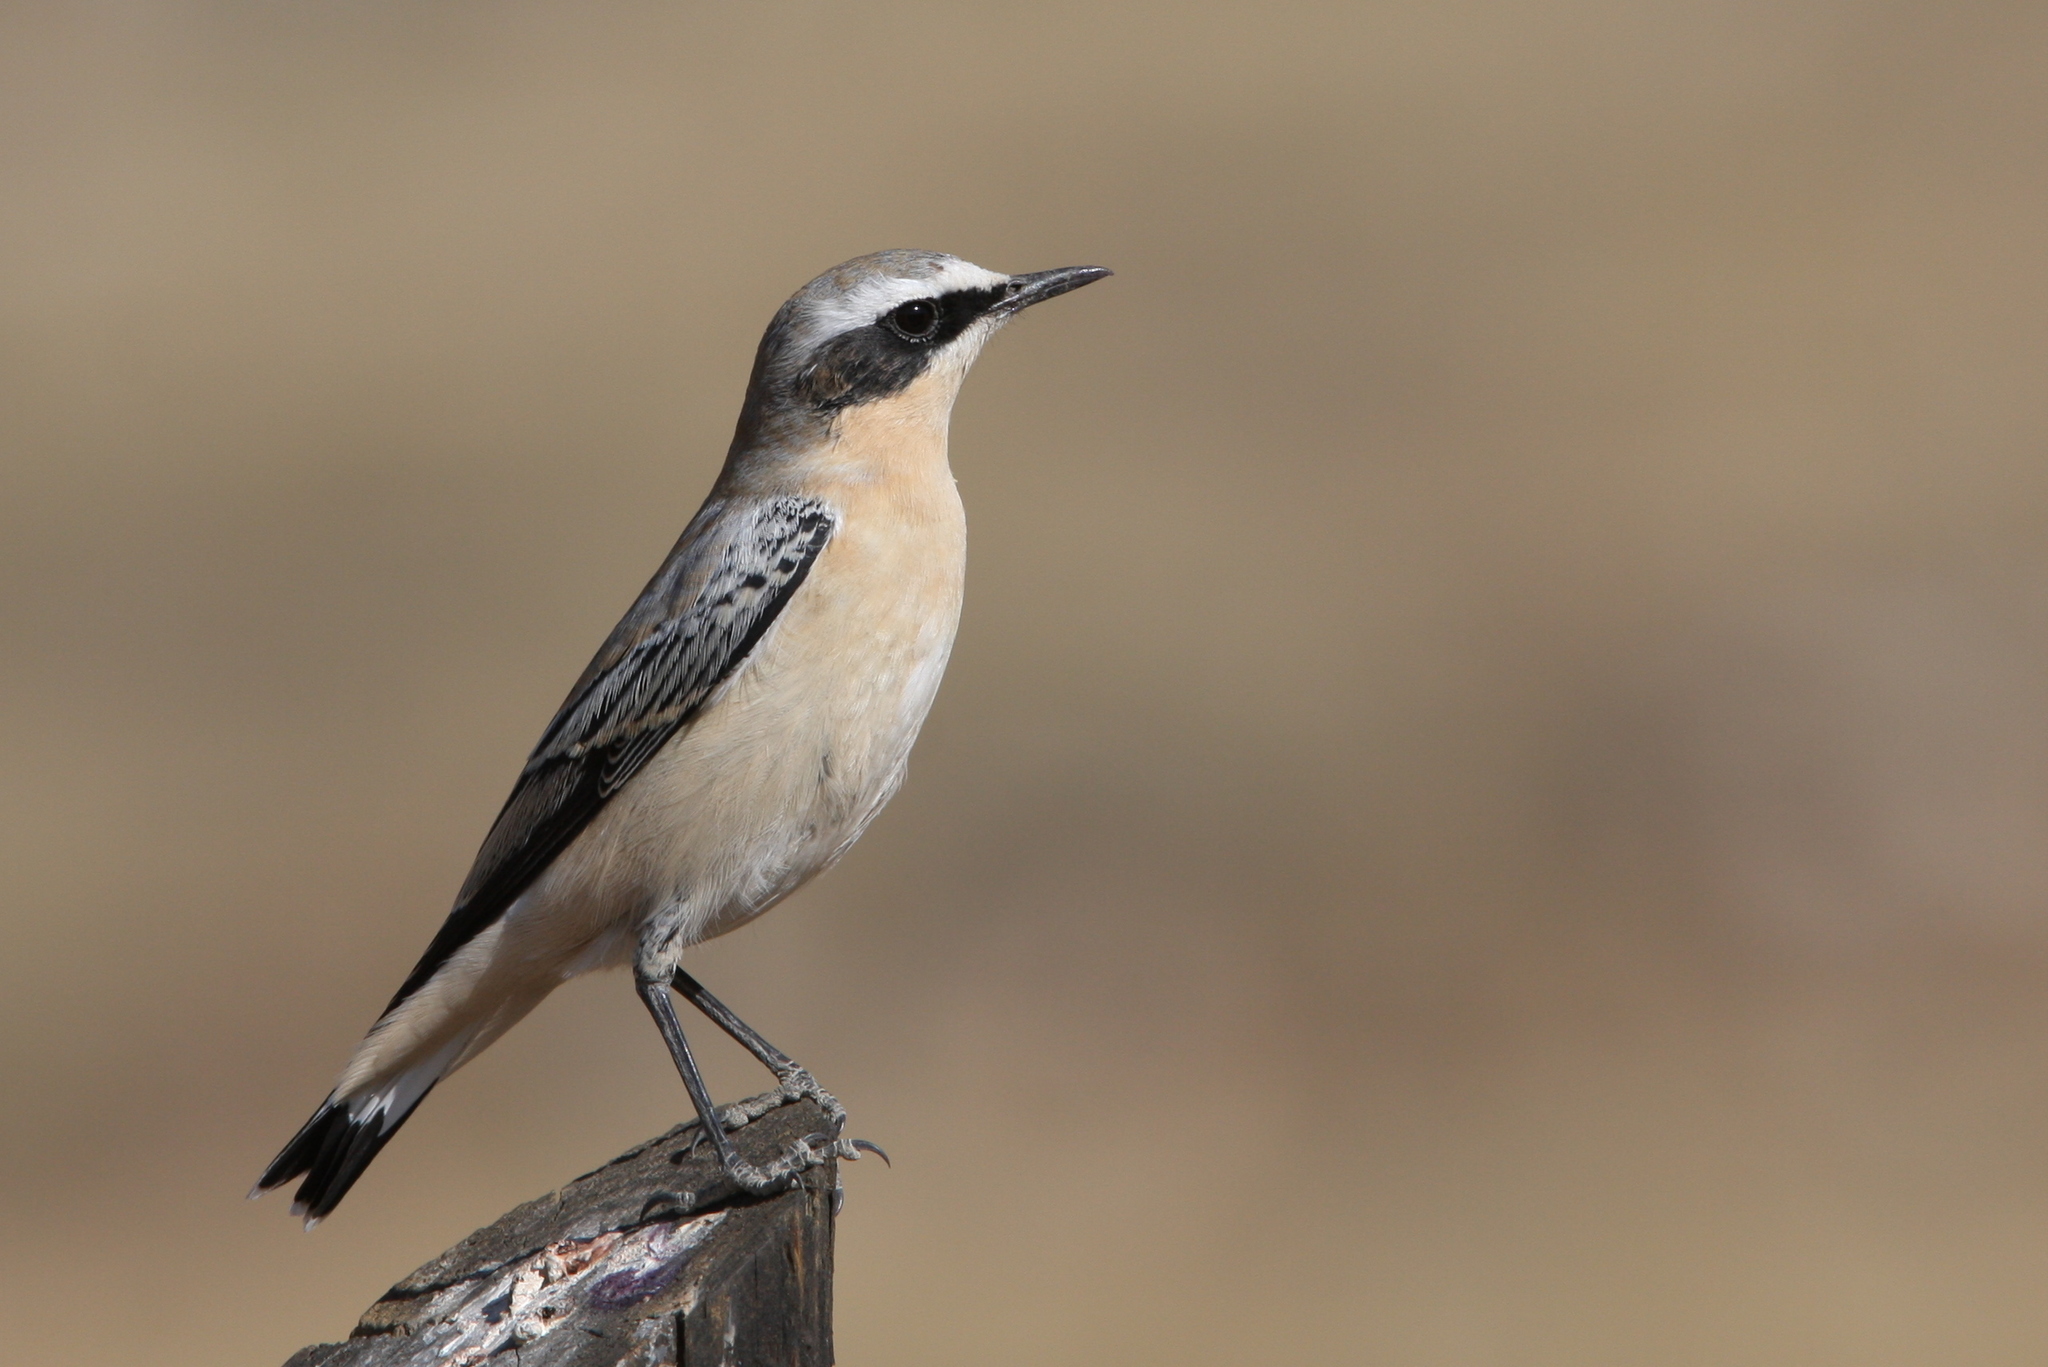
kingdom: Animalia
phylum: Chordata
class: Aves
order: Passeriformes
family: Muscicapidae
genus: Oenanthe
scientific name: Oenanthe oenanthe
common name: Northern wheatear
